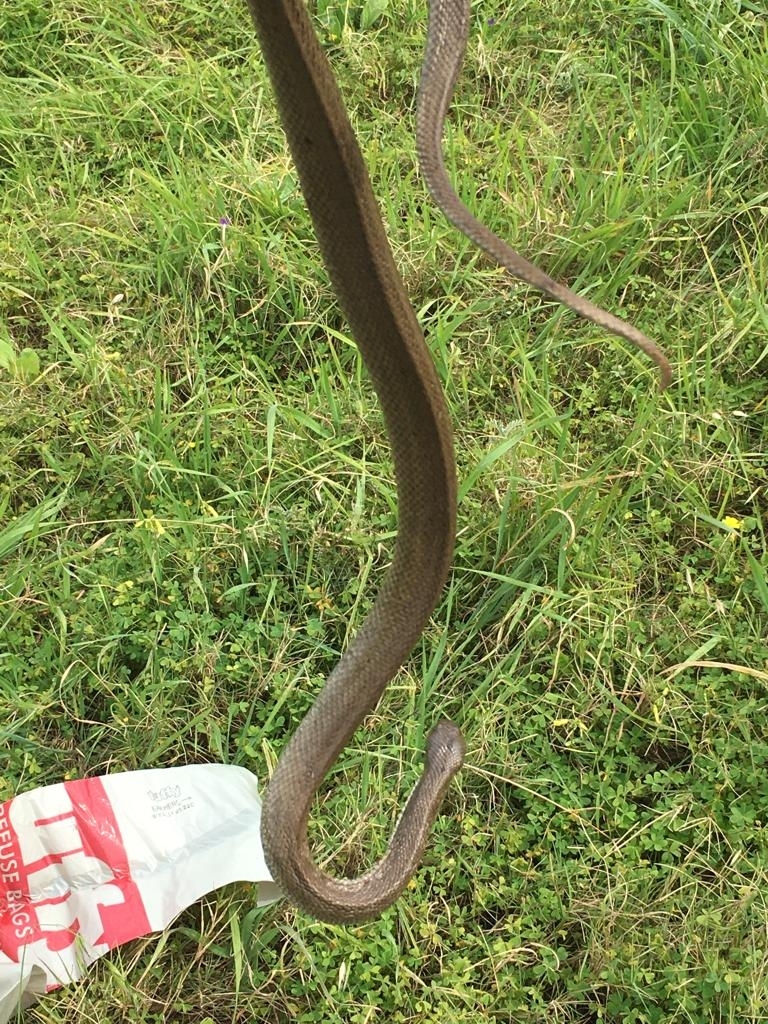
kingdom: Animalia
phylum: Chordata
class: Squamata
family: Pseudaspididae
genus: Pseudaspis
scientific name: Pseudaspis cana
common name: Mole snake
